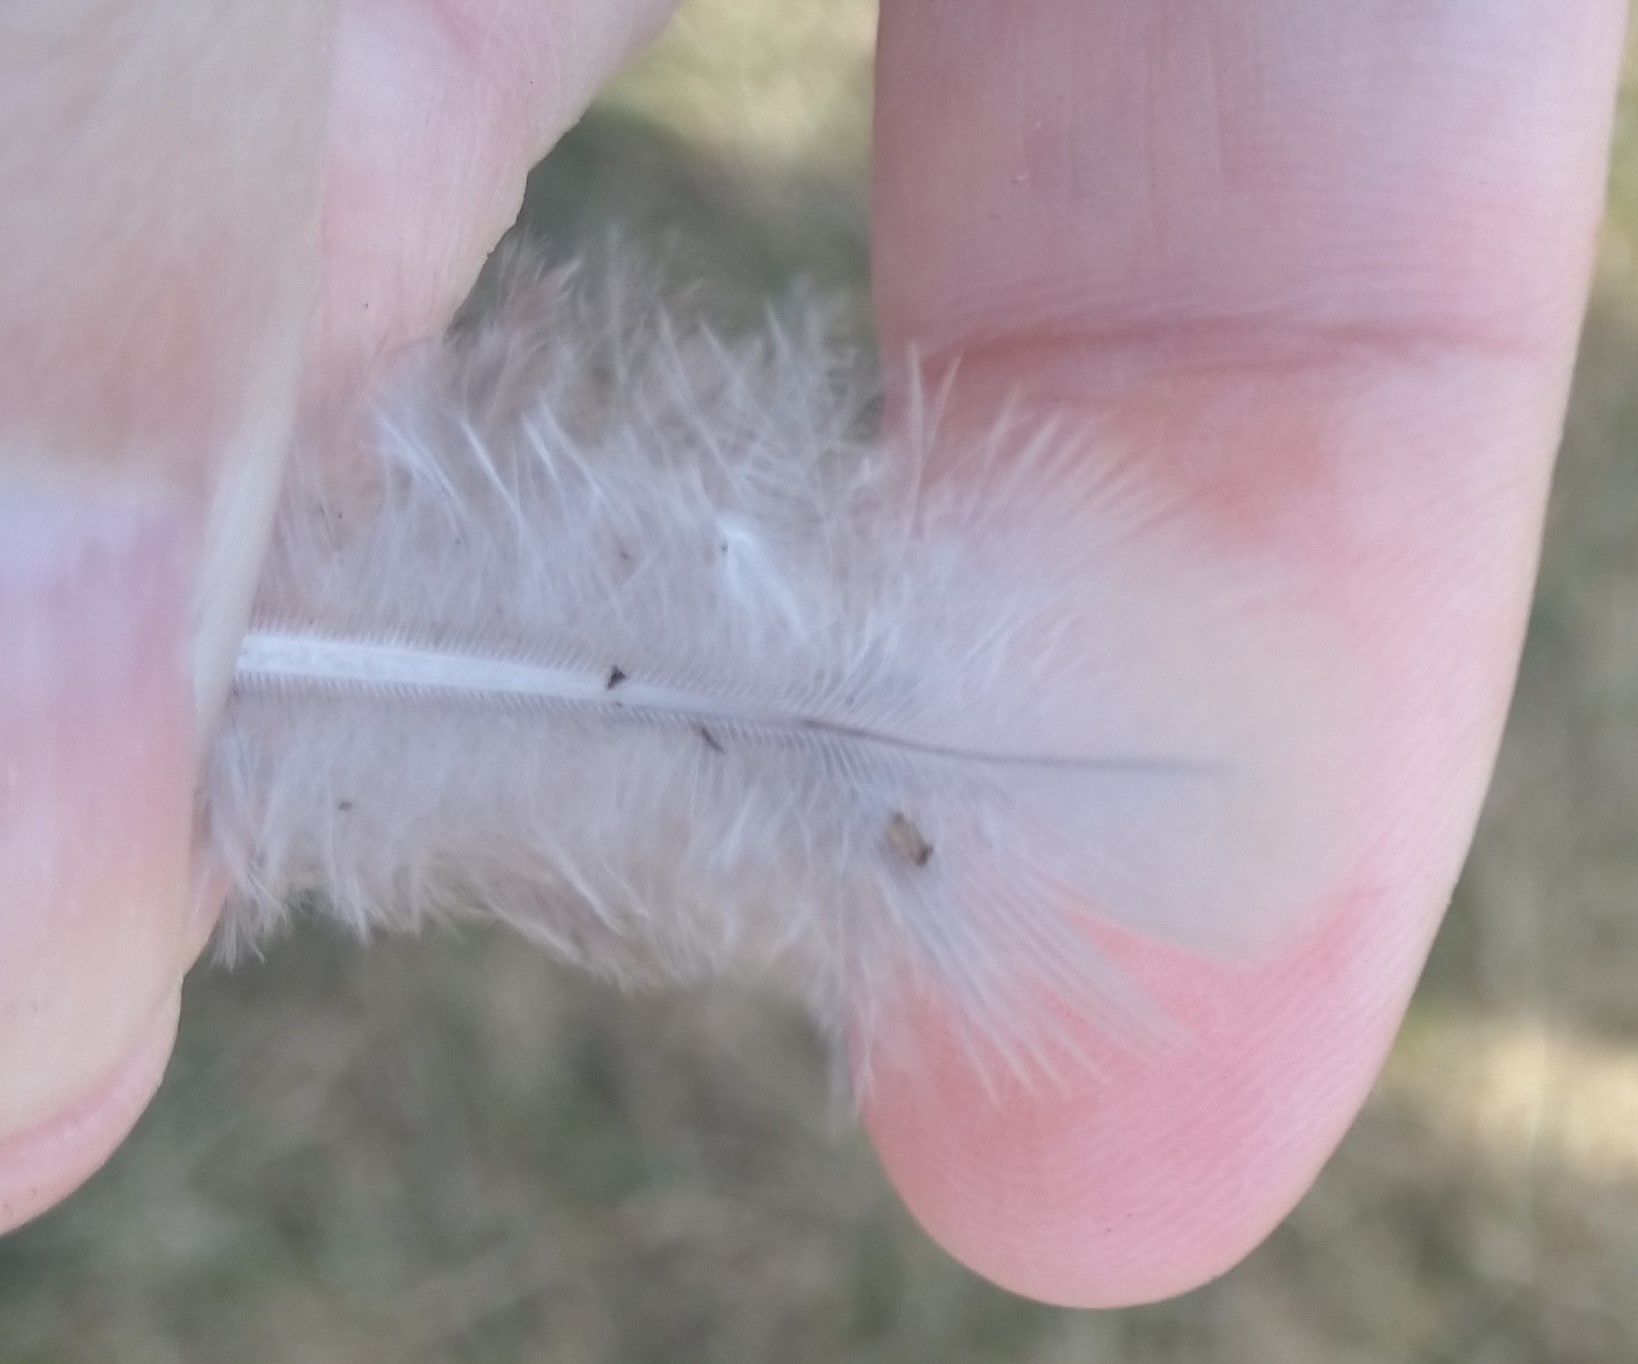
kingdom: Animalia
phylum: Chordata
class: Aves
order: Columbiformes
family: Columbidae
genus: Zenaida
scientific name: Zenaida macroura
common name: Mourning dove
